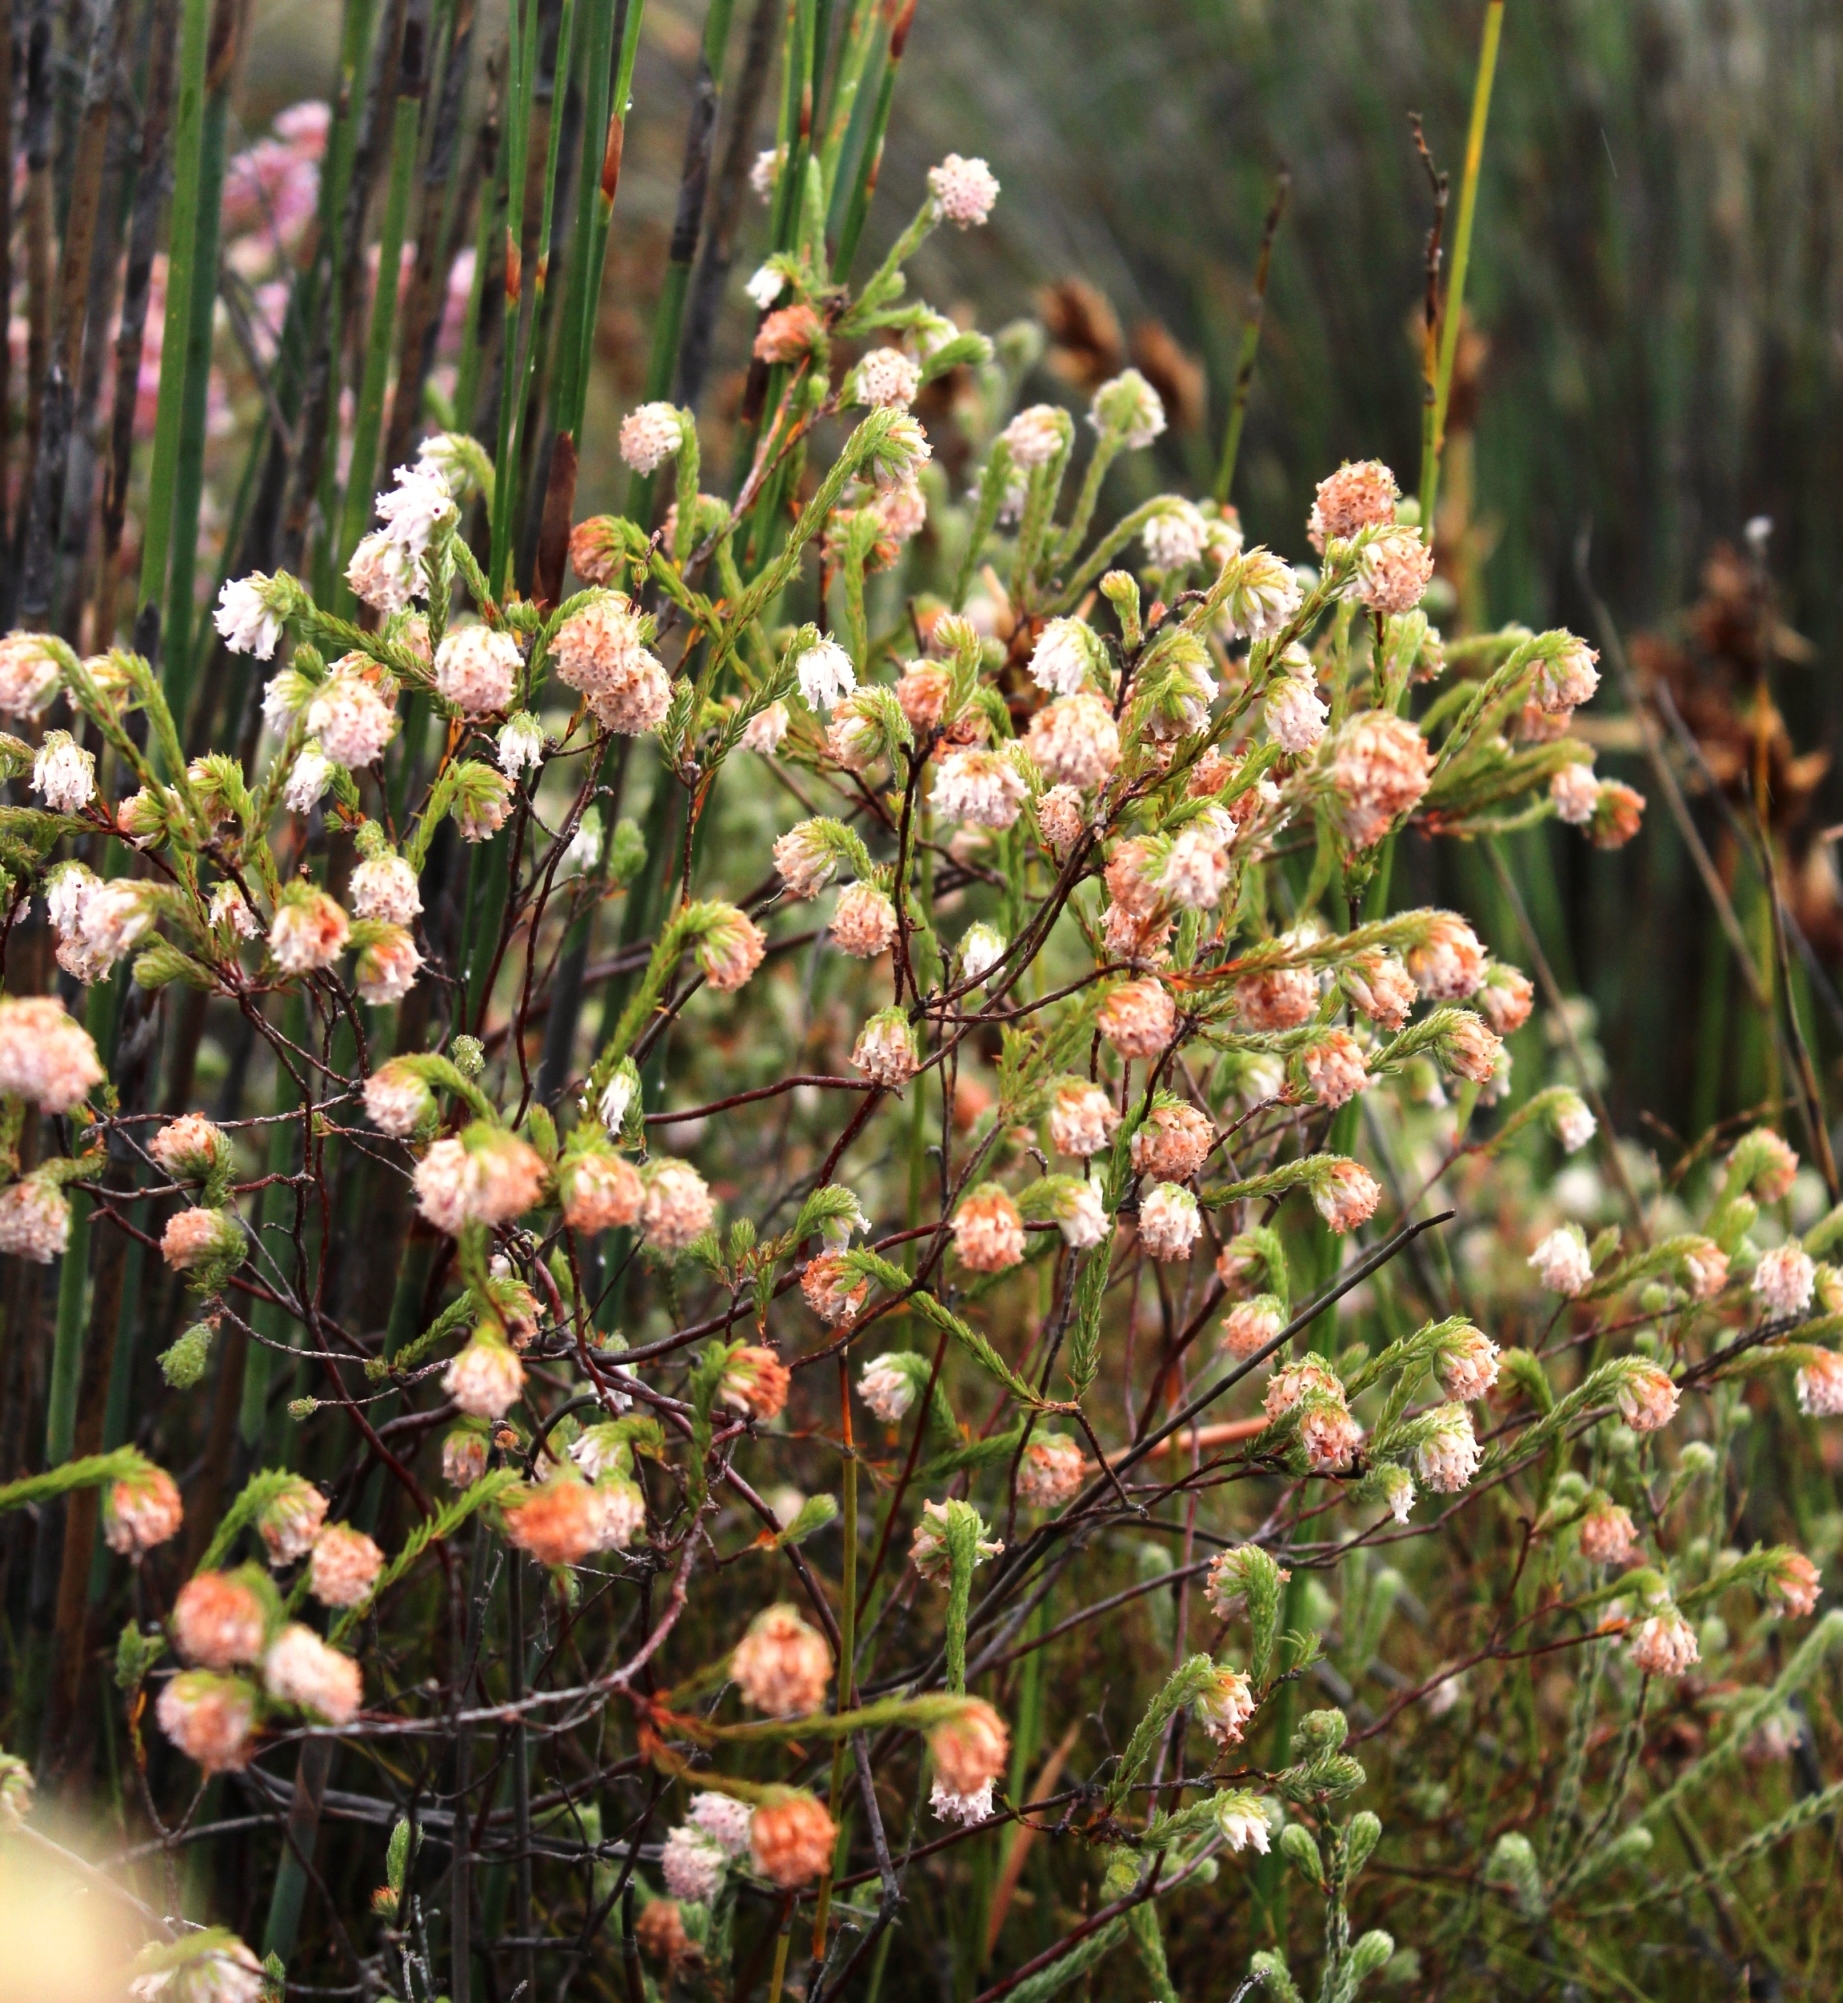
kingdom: Plantae
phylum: Tracheophyta
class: Magnoliopsida
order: Ericales
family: Ericaceae
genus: Erica
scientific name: Erica maderi
